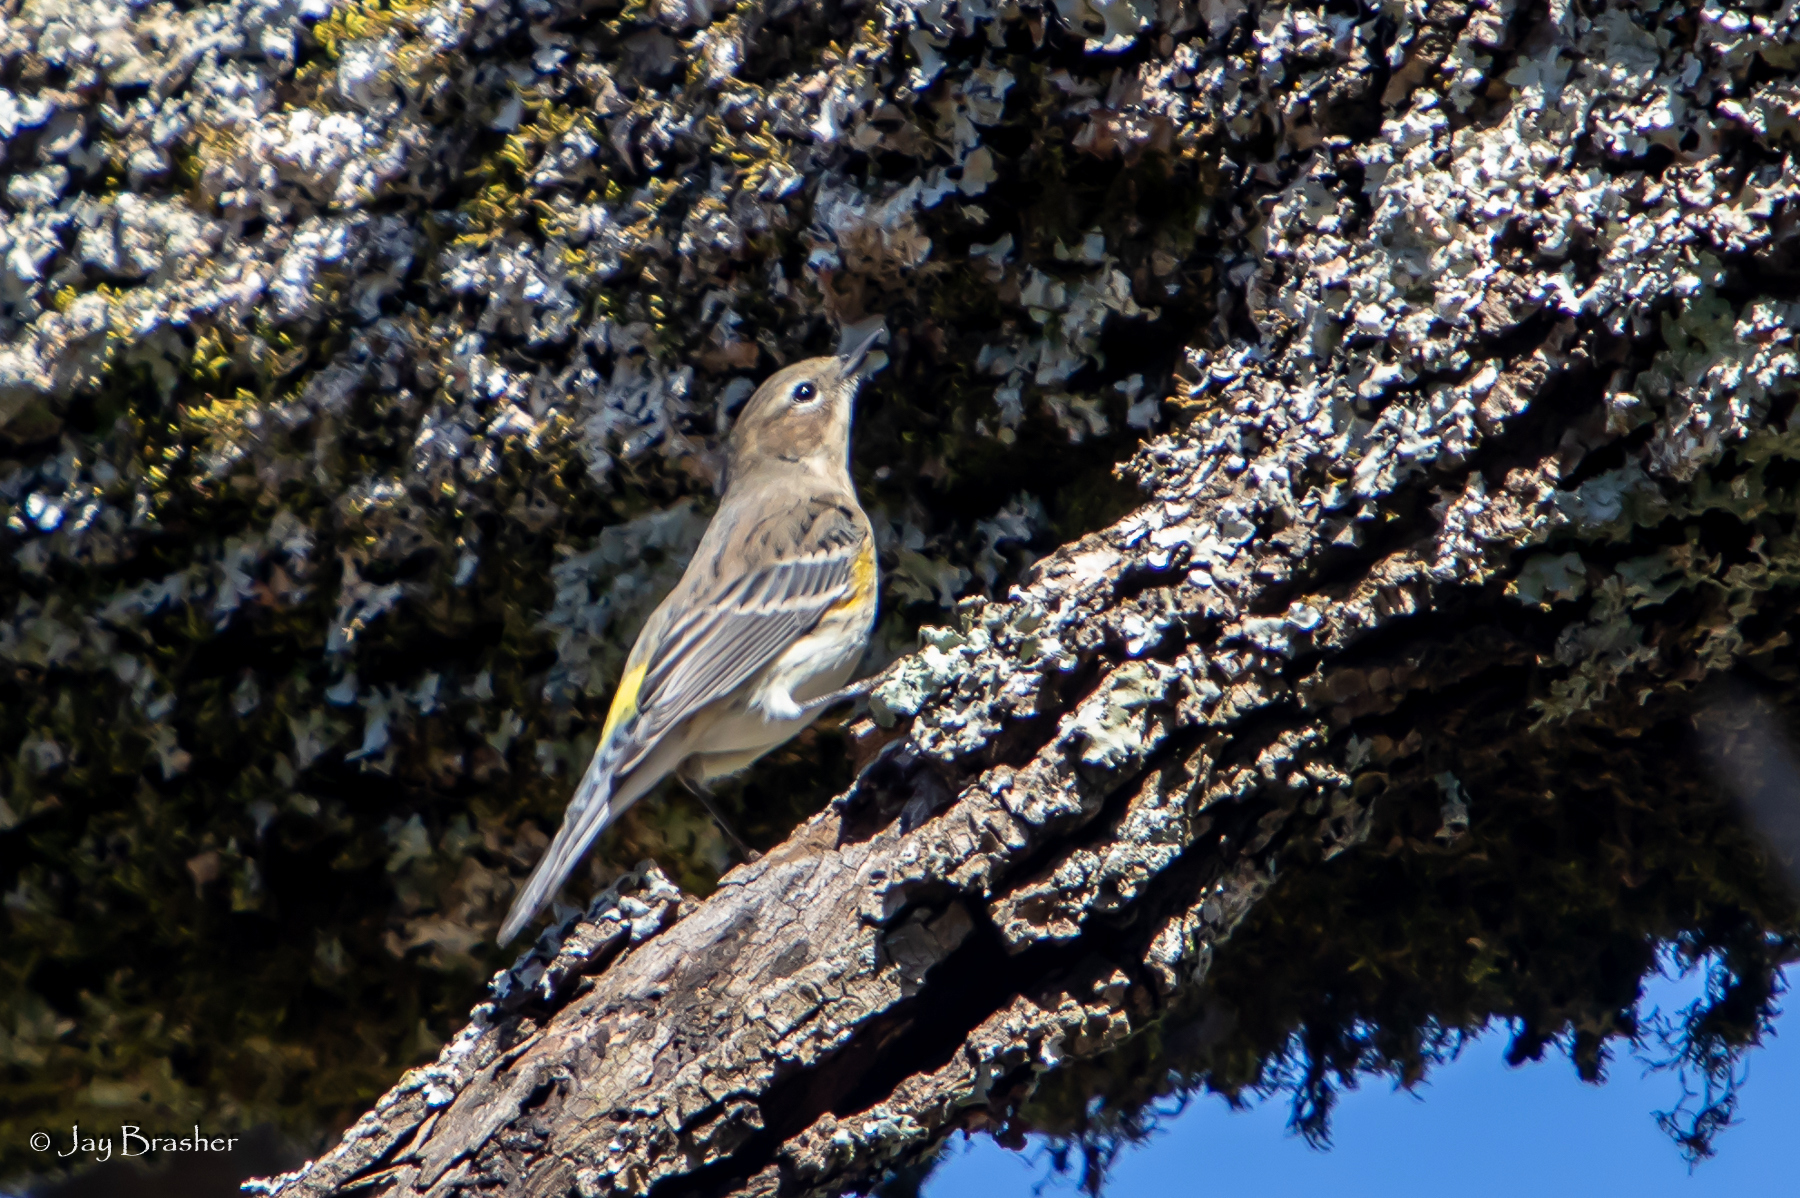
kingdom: Animalia
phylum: Chordata
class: Aves
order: Passeriformes
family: Parulidae
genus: Setophaga
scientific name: Setophaga coronata
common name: Myrtle warbler
